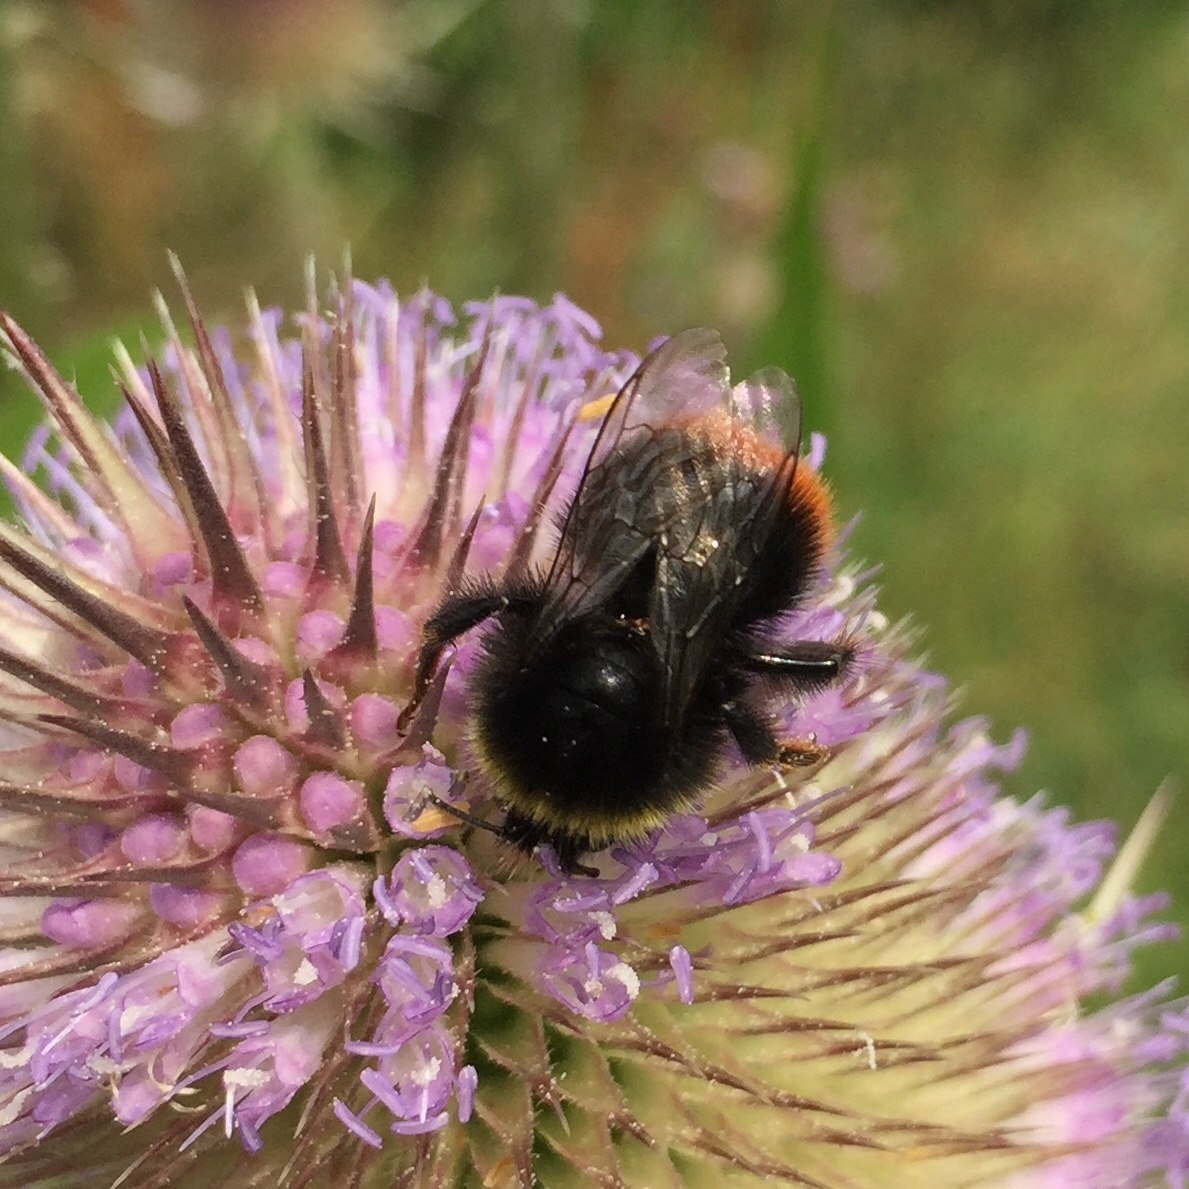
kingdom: Animalia
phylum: Arthropoda
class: Insecta
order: Hymenoptera
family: Apidae
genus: Bombus
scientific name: Bombus lapidarius
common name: Large red-tailed humble-bee
